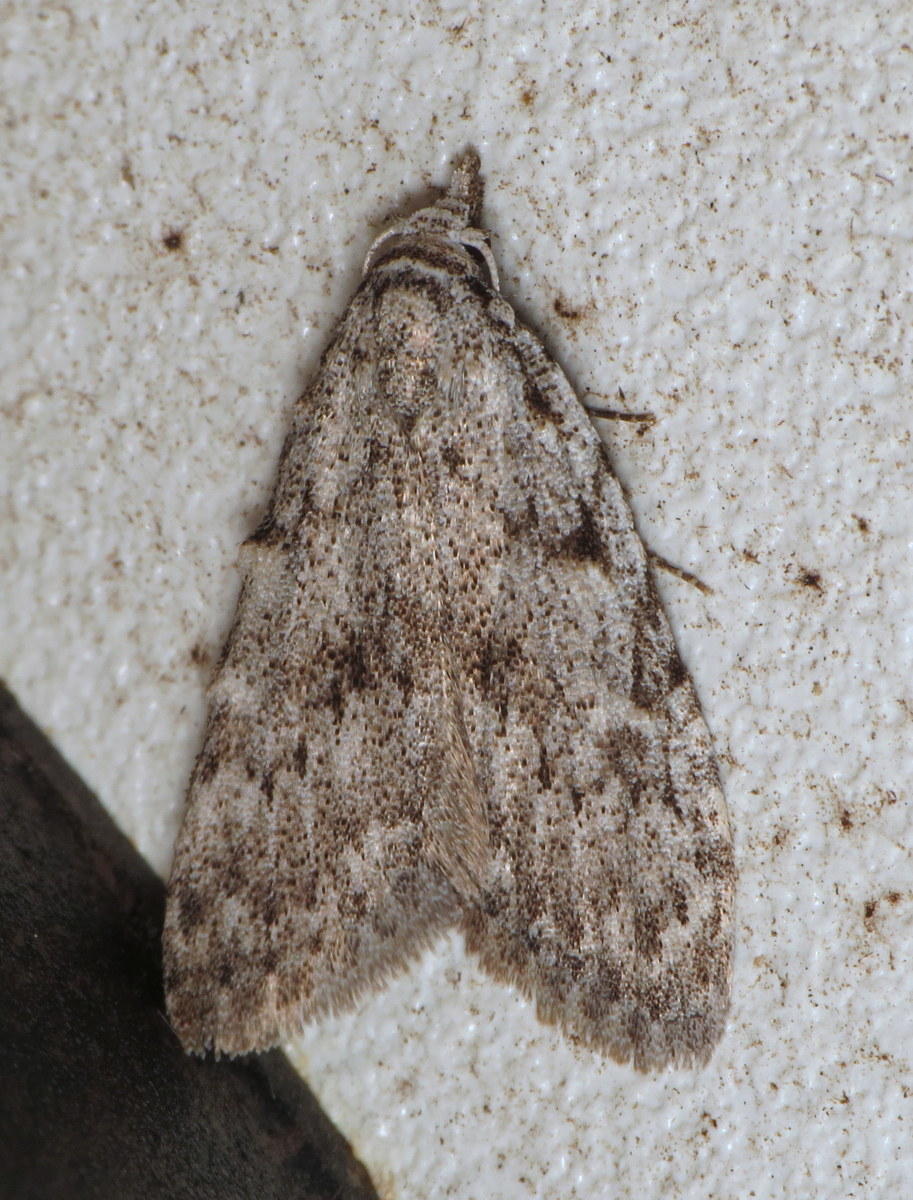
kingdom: Animalia
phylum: Arthropoda
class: Insecta
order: Lepidoptera
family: Nolidae
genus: Nola
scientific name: Nola clethrae
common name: Sweet pepperbush nola moth
